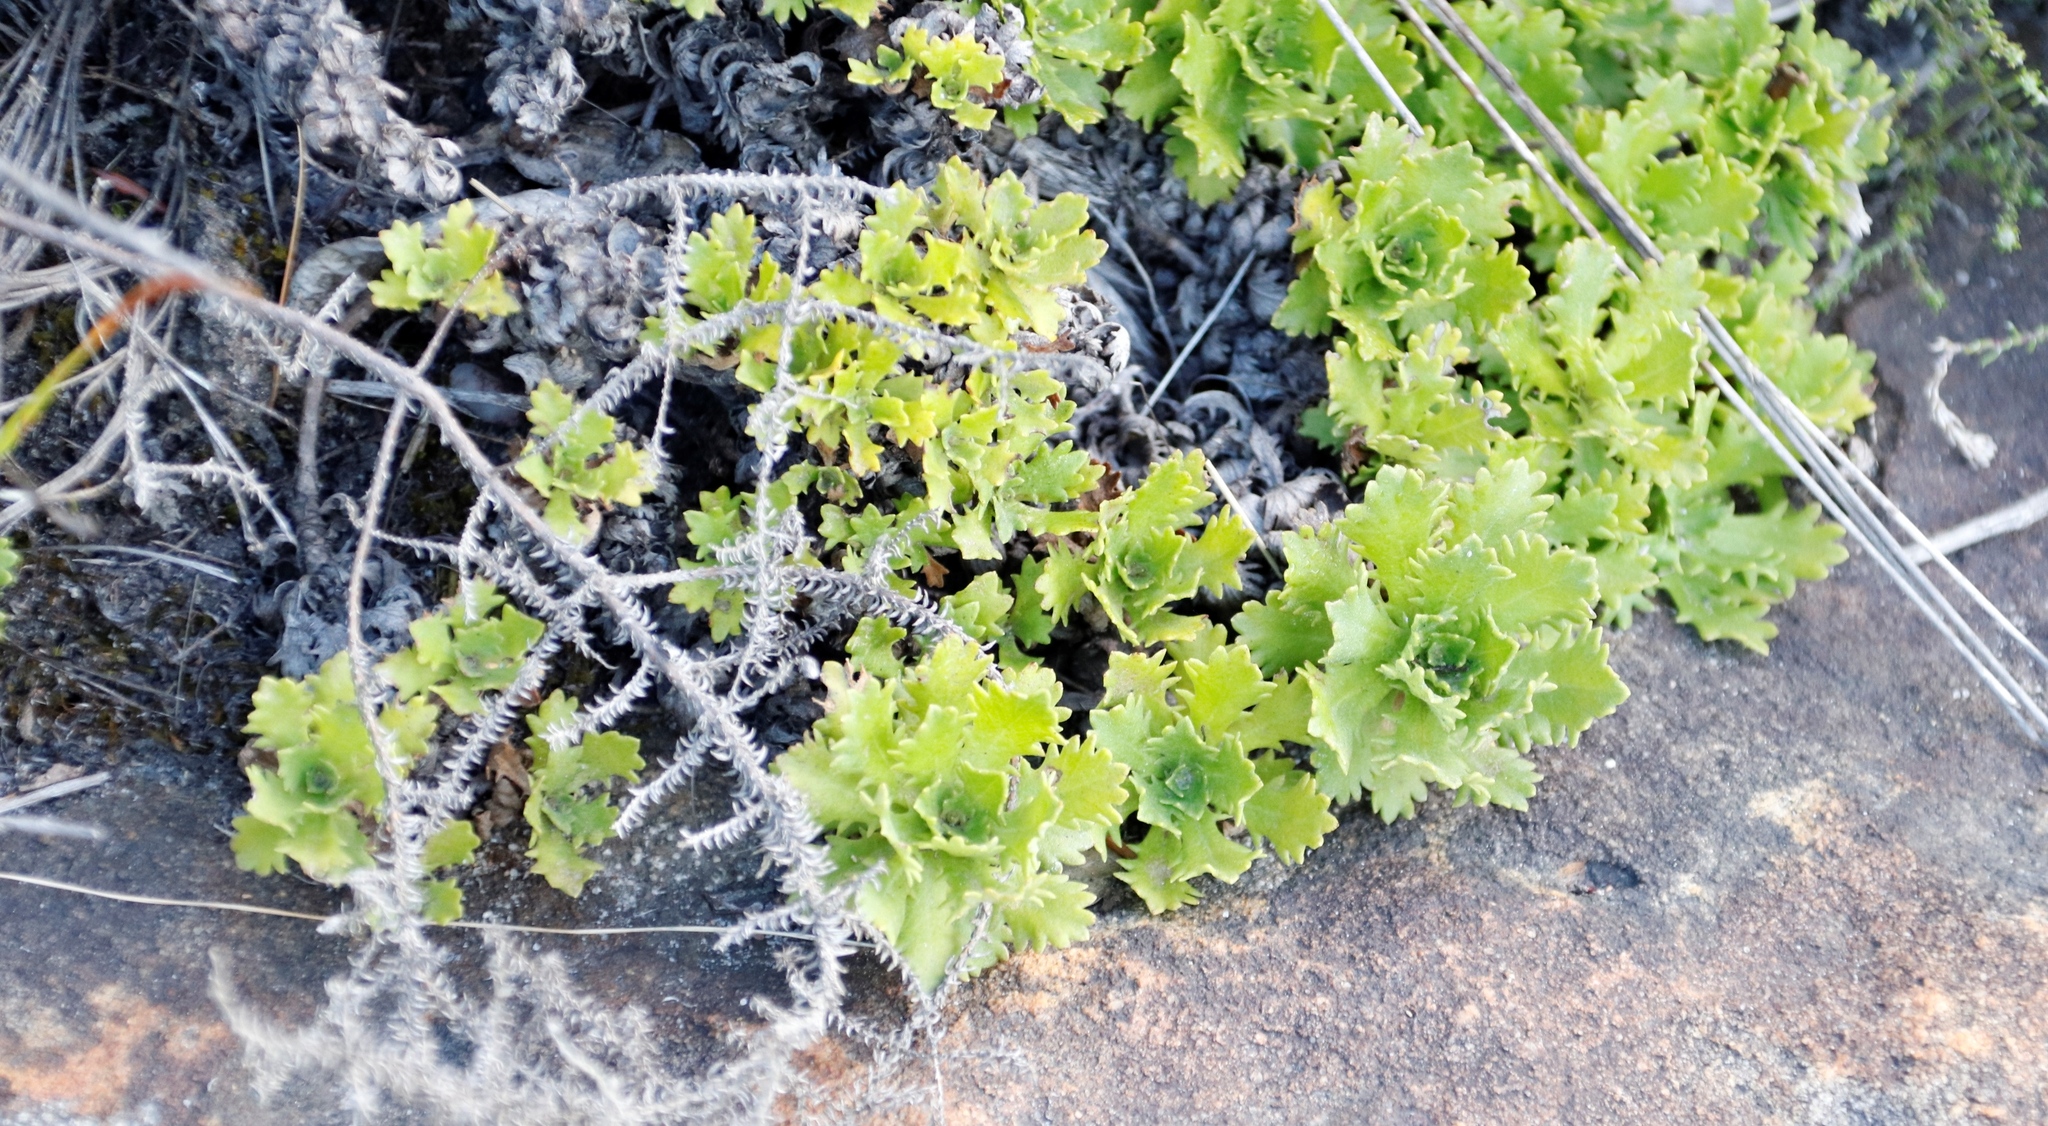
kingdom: Plantae
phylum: Tracheophyta
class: Magnoliopsida
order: Asterales
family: Asteraceae
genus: Osmitopsis
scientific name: Osmitopsis dentata
